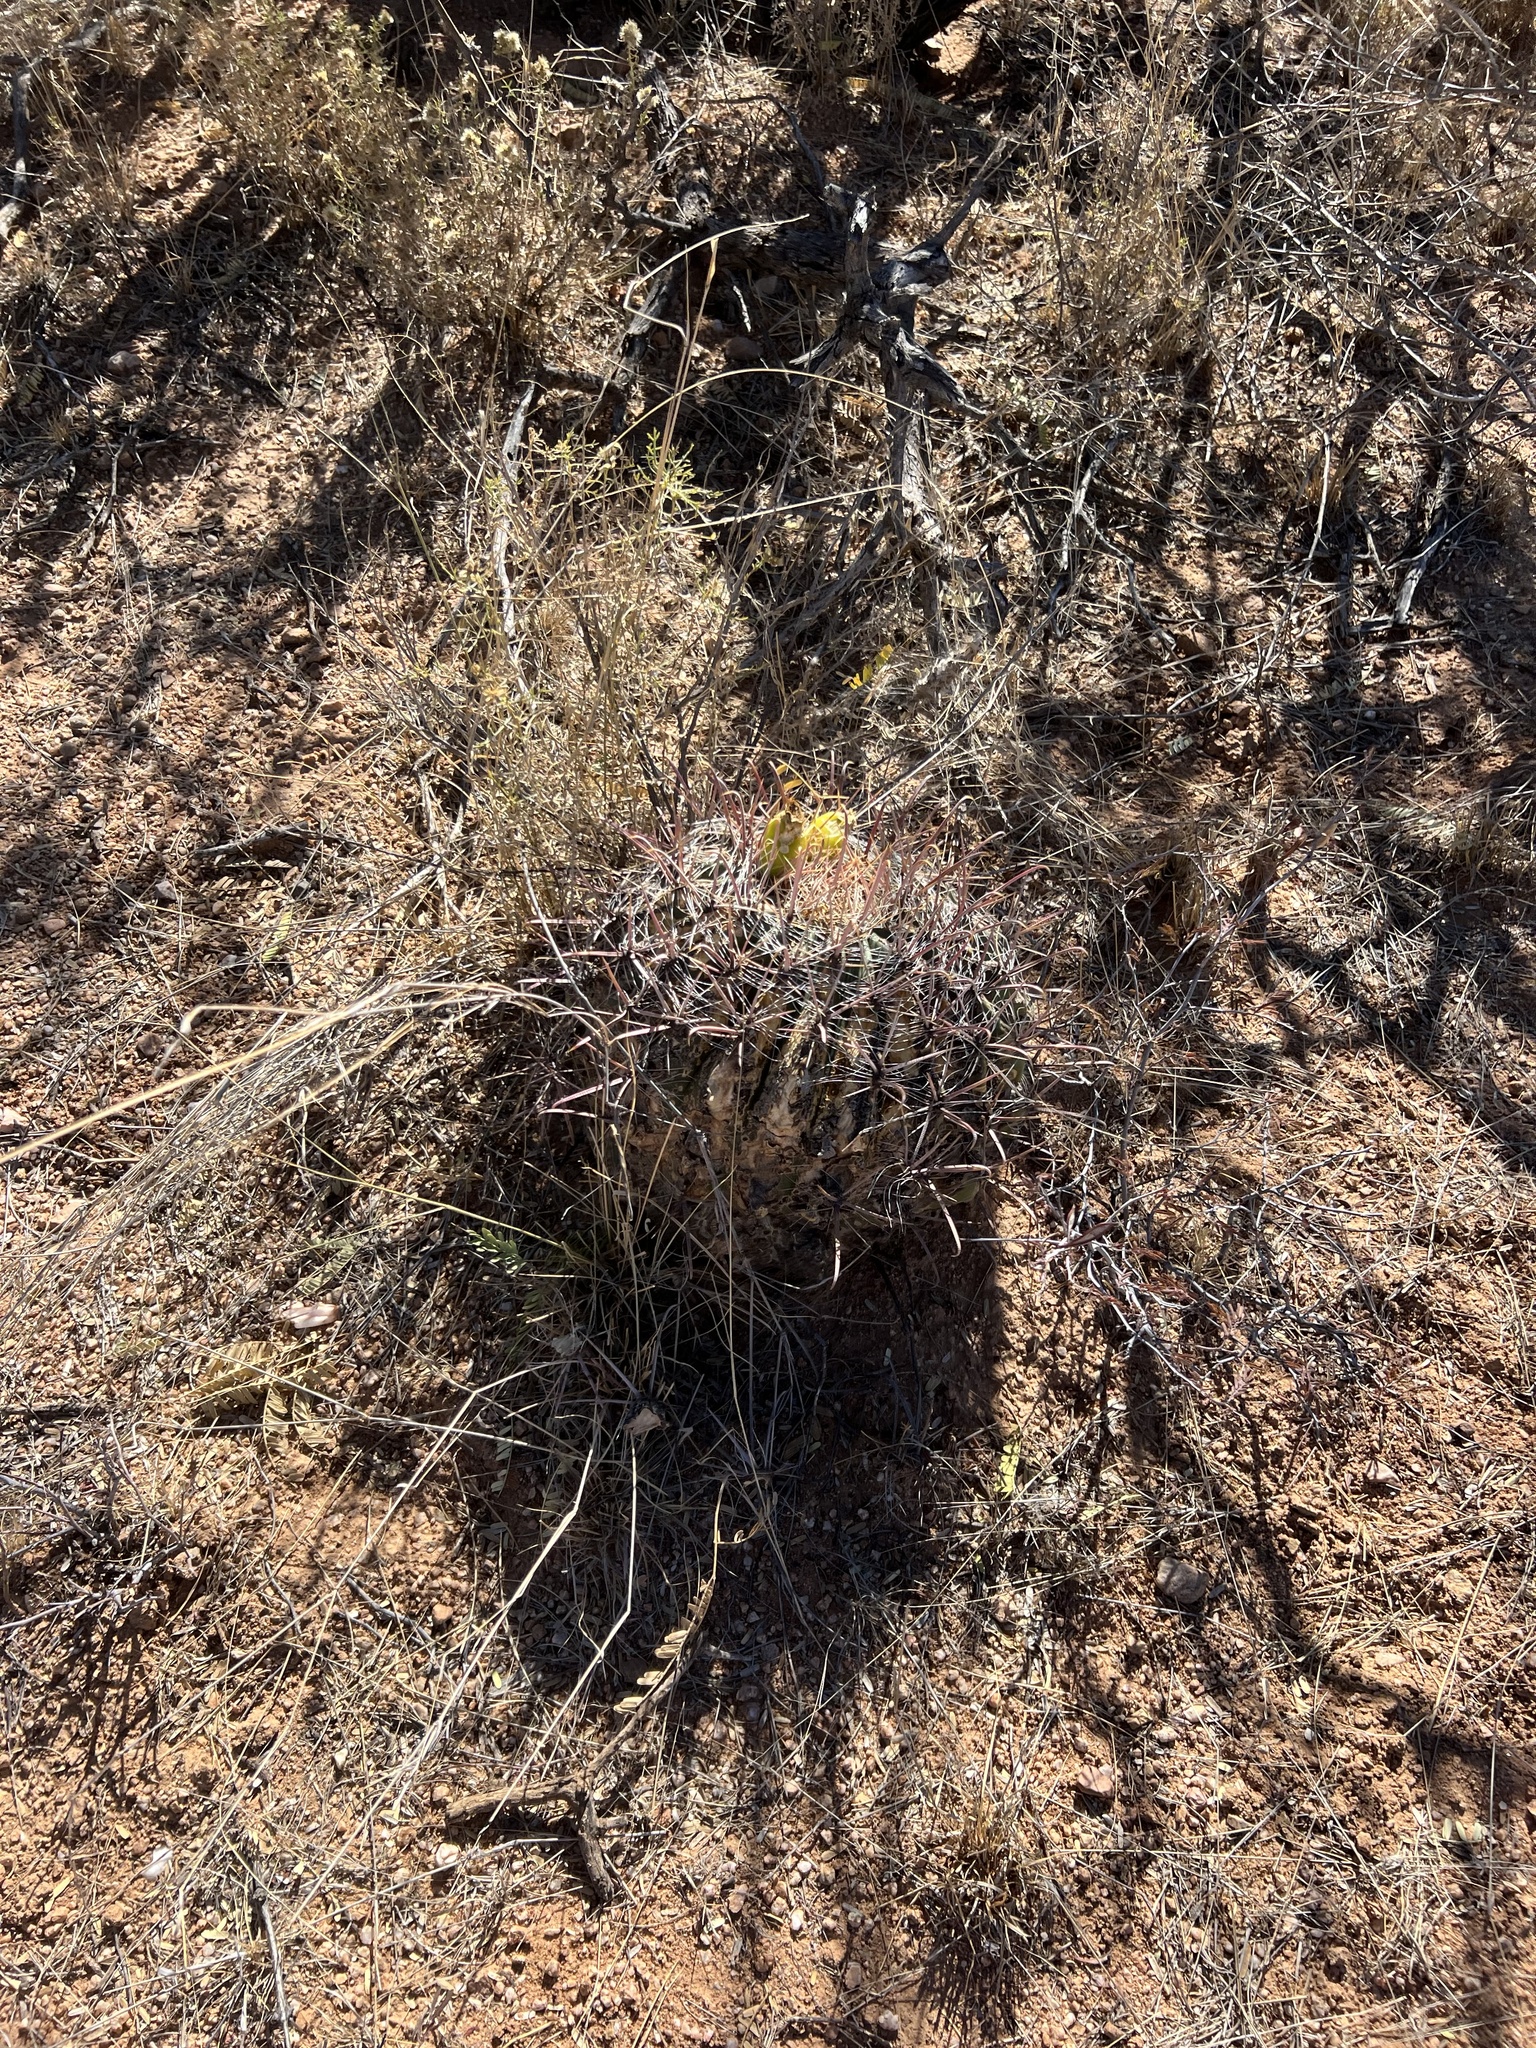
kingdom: Plantae
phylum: Tracheophyta
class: Magnoliopsida
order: Caryophyllales
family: Cactaceae
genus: Ferocactus
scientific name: Ferocactus wislizeni
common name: Candy barrel cactus
